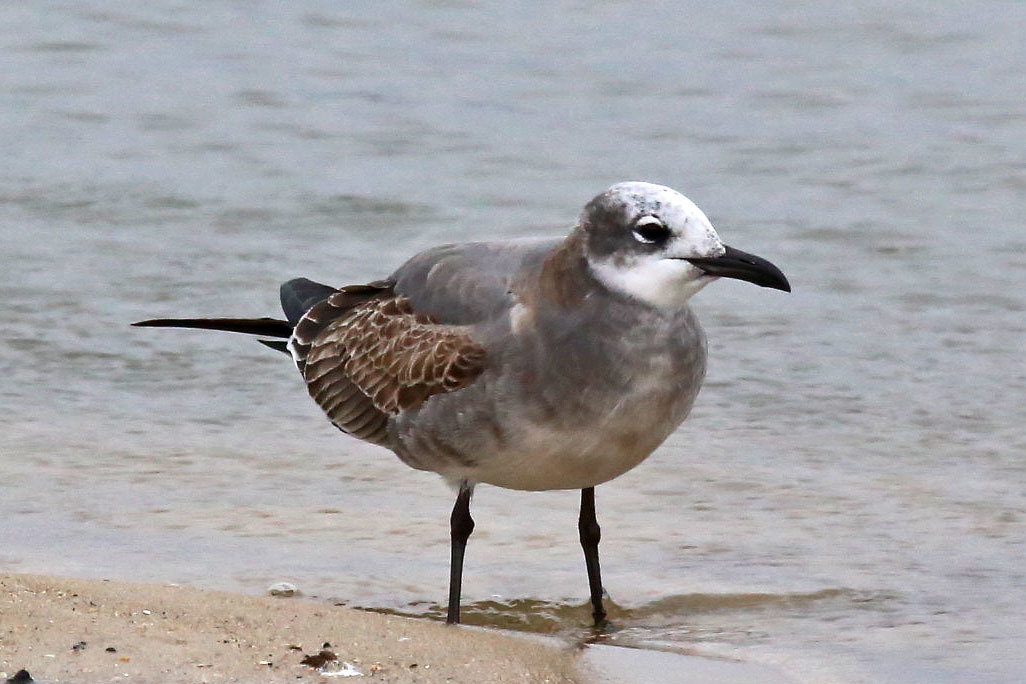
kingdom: Animalia
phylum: Chordata
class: Aves
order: Charadriiformes
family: Laridae
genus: Leucophaeus
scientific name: Leucophaeus atricilla
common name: Laughing gull
